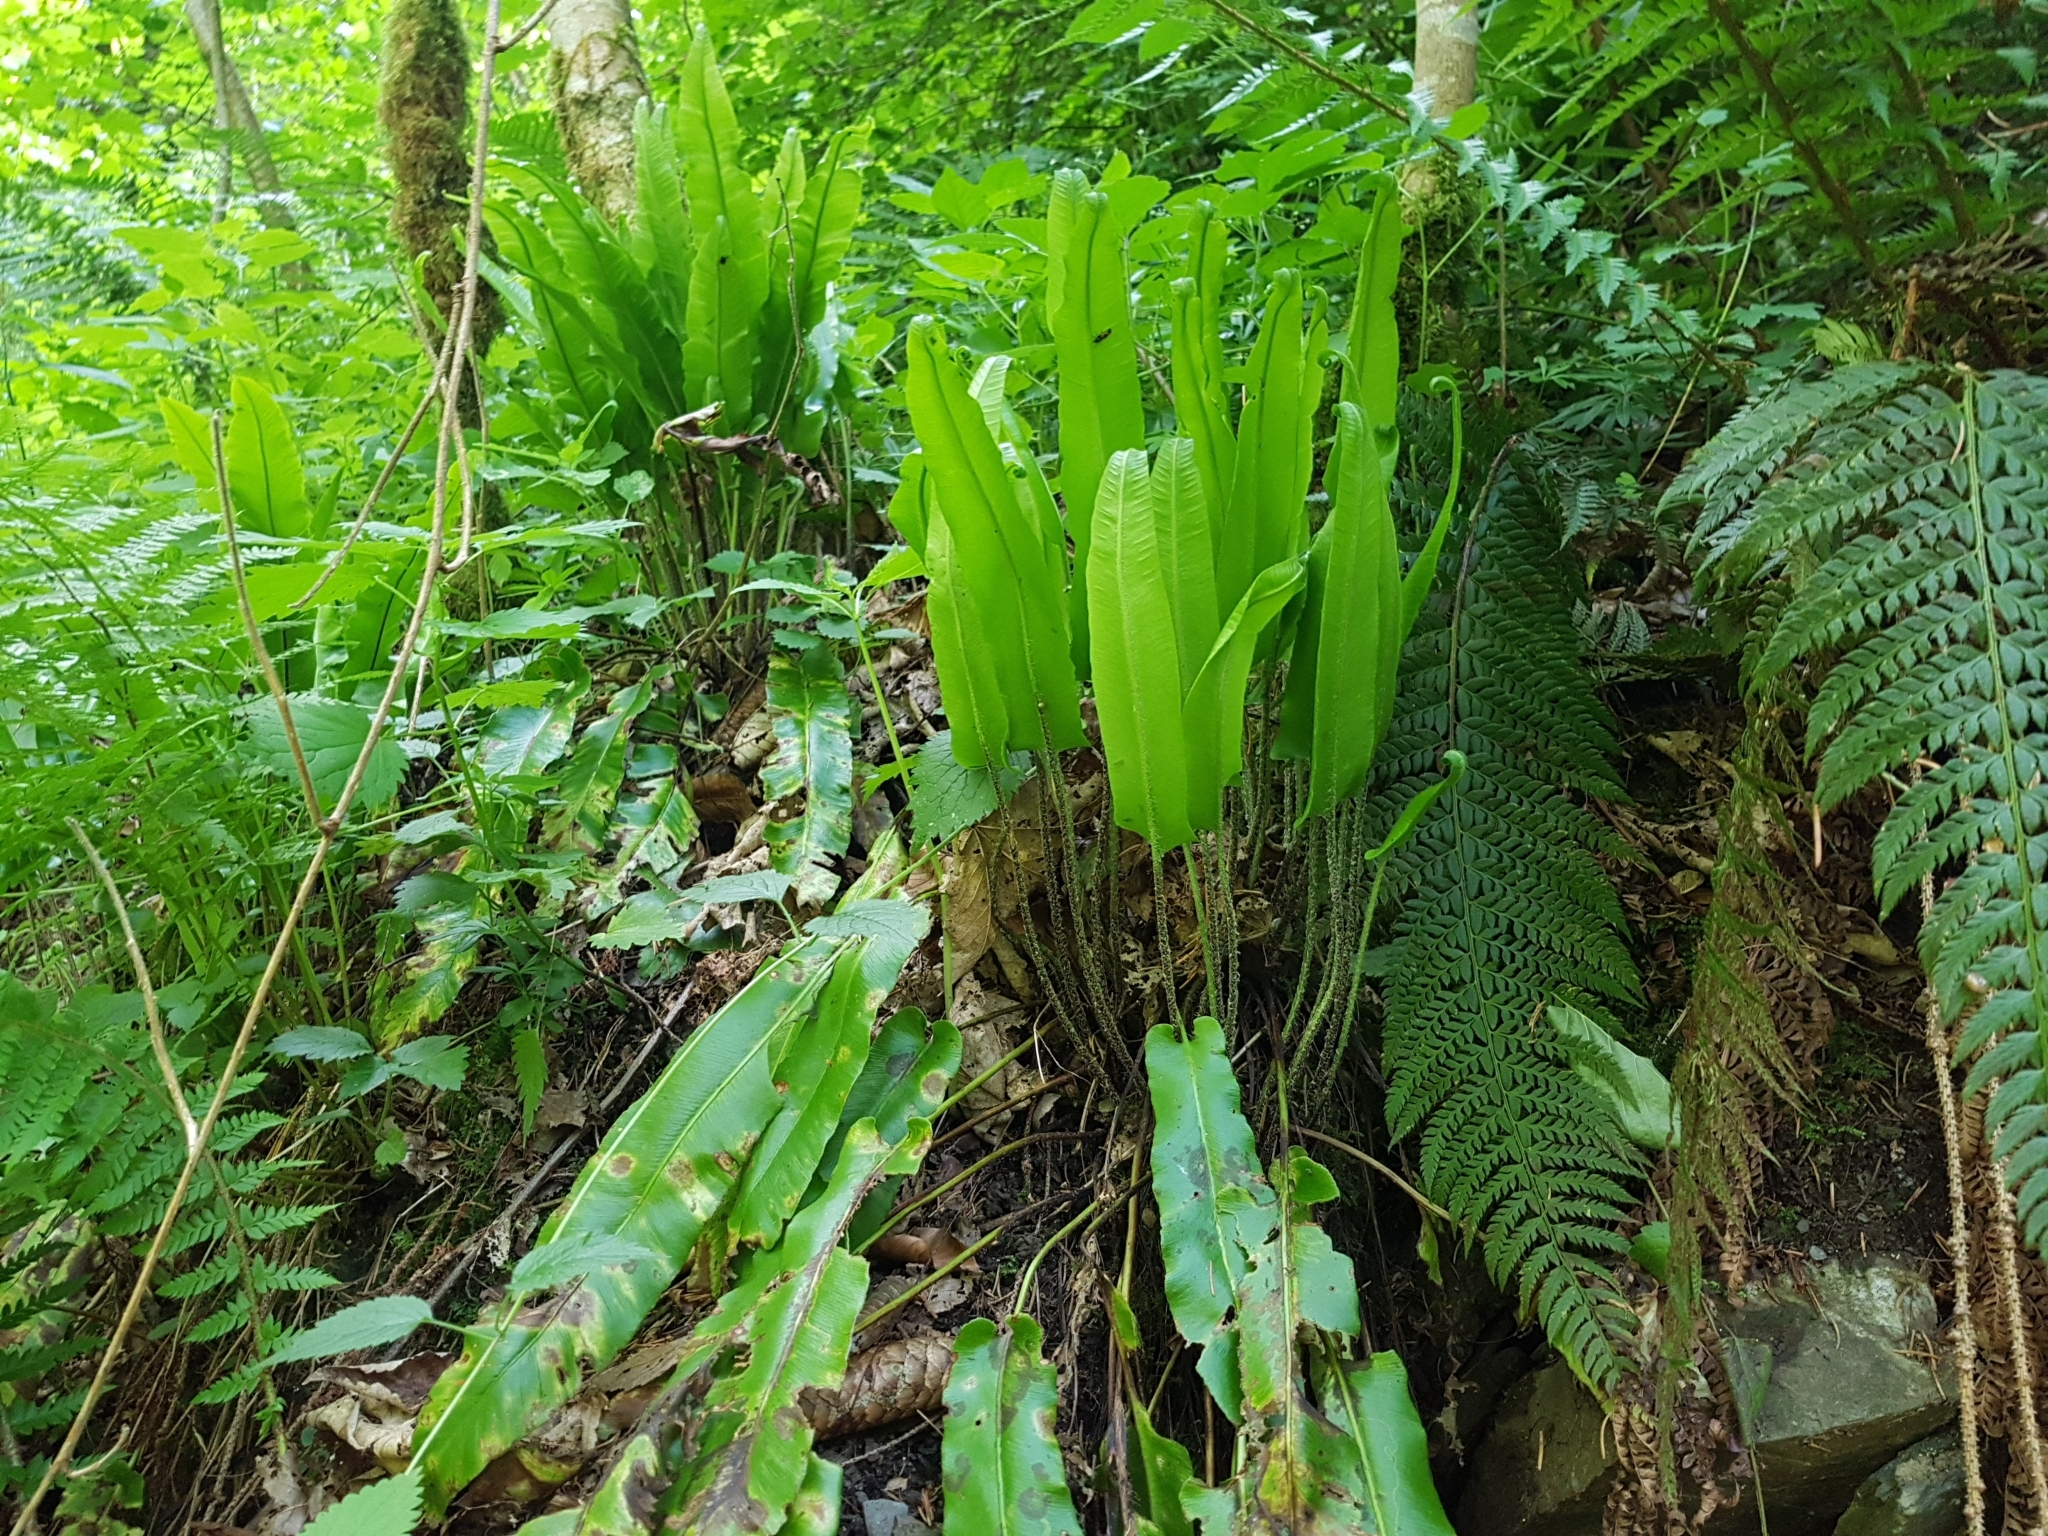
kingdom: Plantae
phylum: Tracheophyta
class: Polypodiopsida
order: Polypodiales
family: Aspleniaceae
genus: Asplenium
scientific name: Asplenium scolopendrium
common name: Hart's-tongue fern
